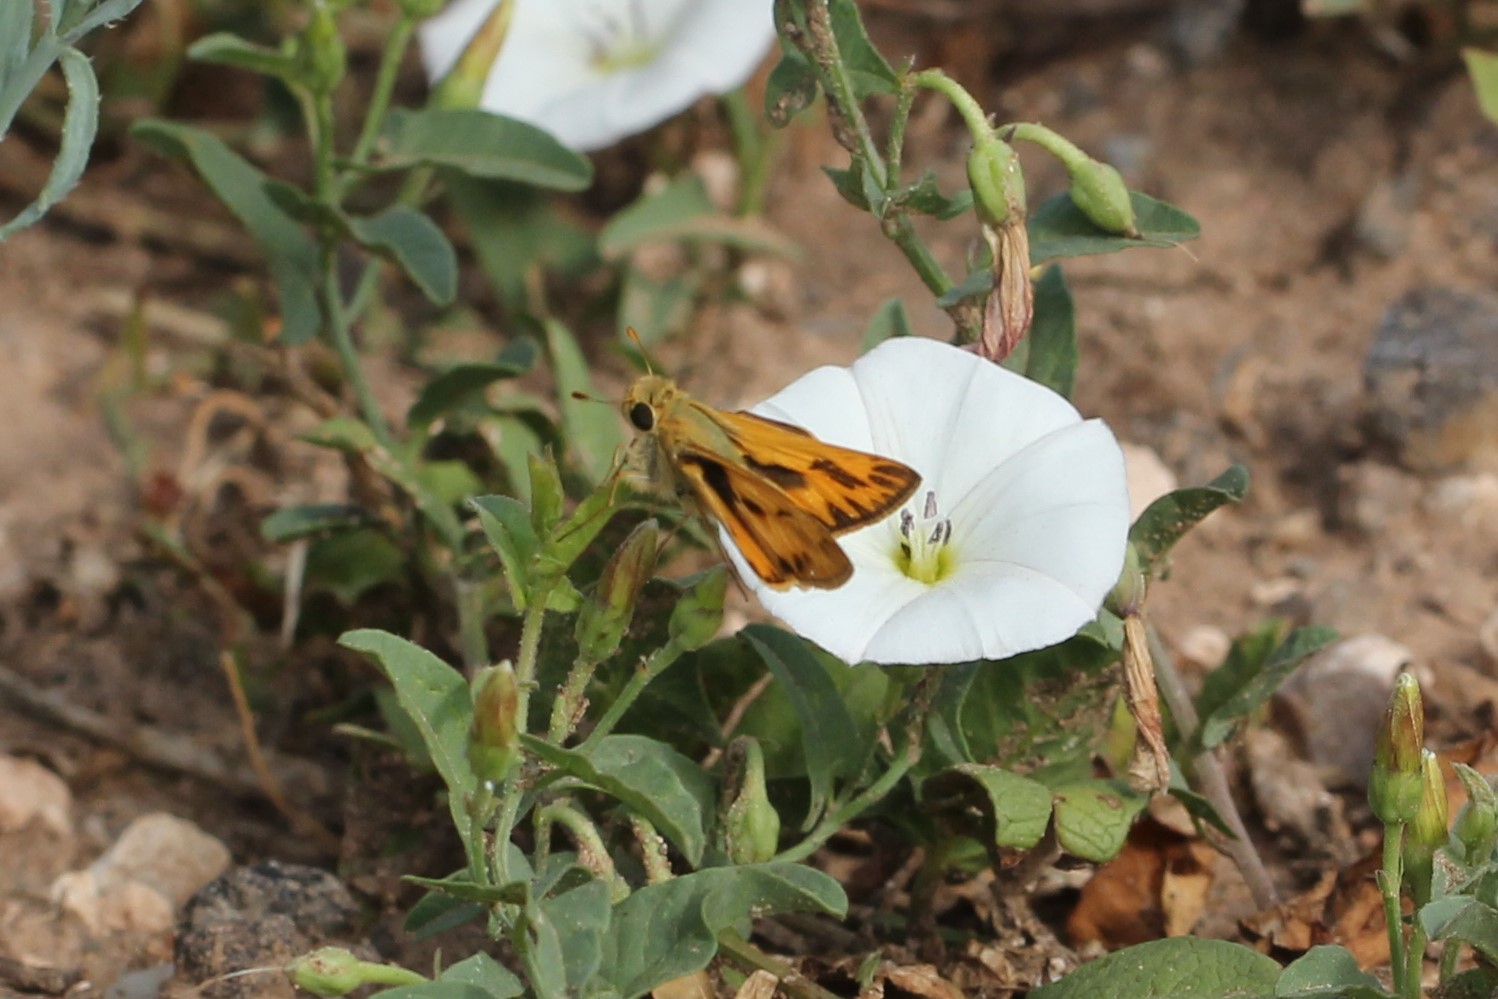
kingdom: Animalia
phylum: Arthropoda
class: Insecta
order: Lepidoptera
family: Hesperiidae
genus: Hylephila
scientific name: Hylephila phyleus
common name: Fiery skipper
